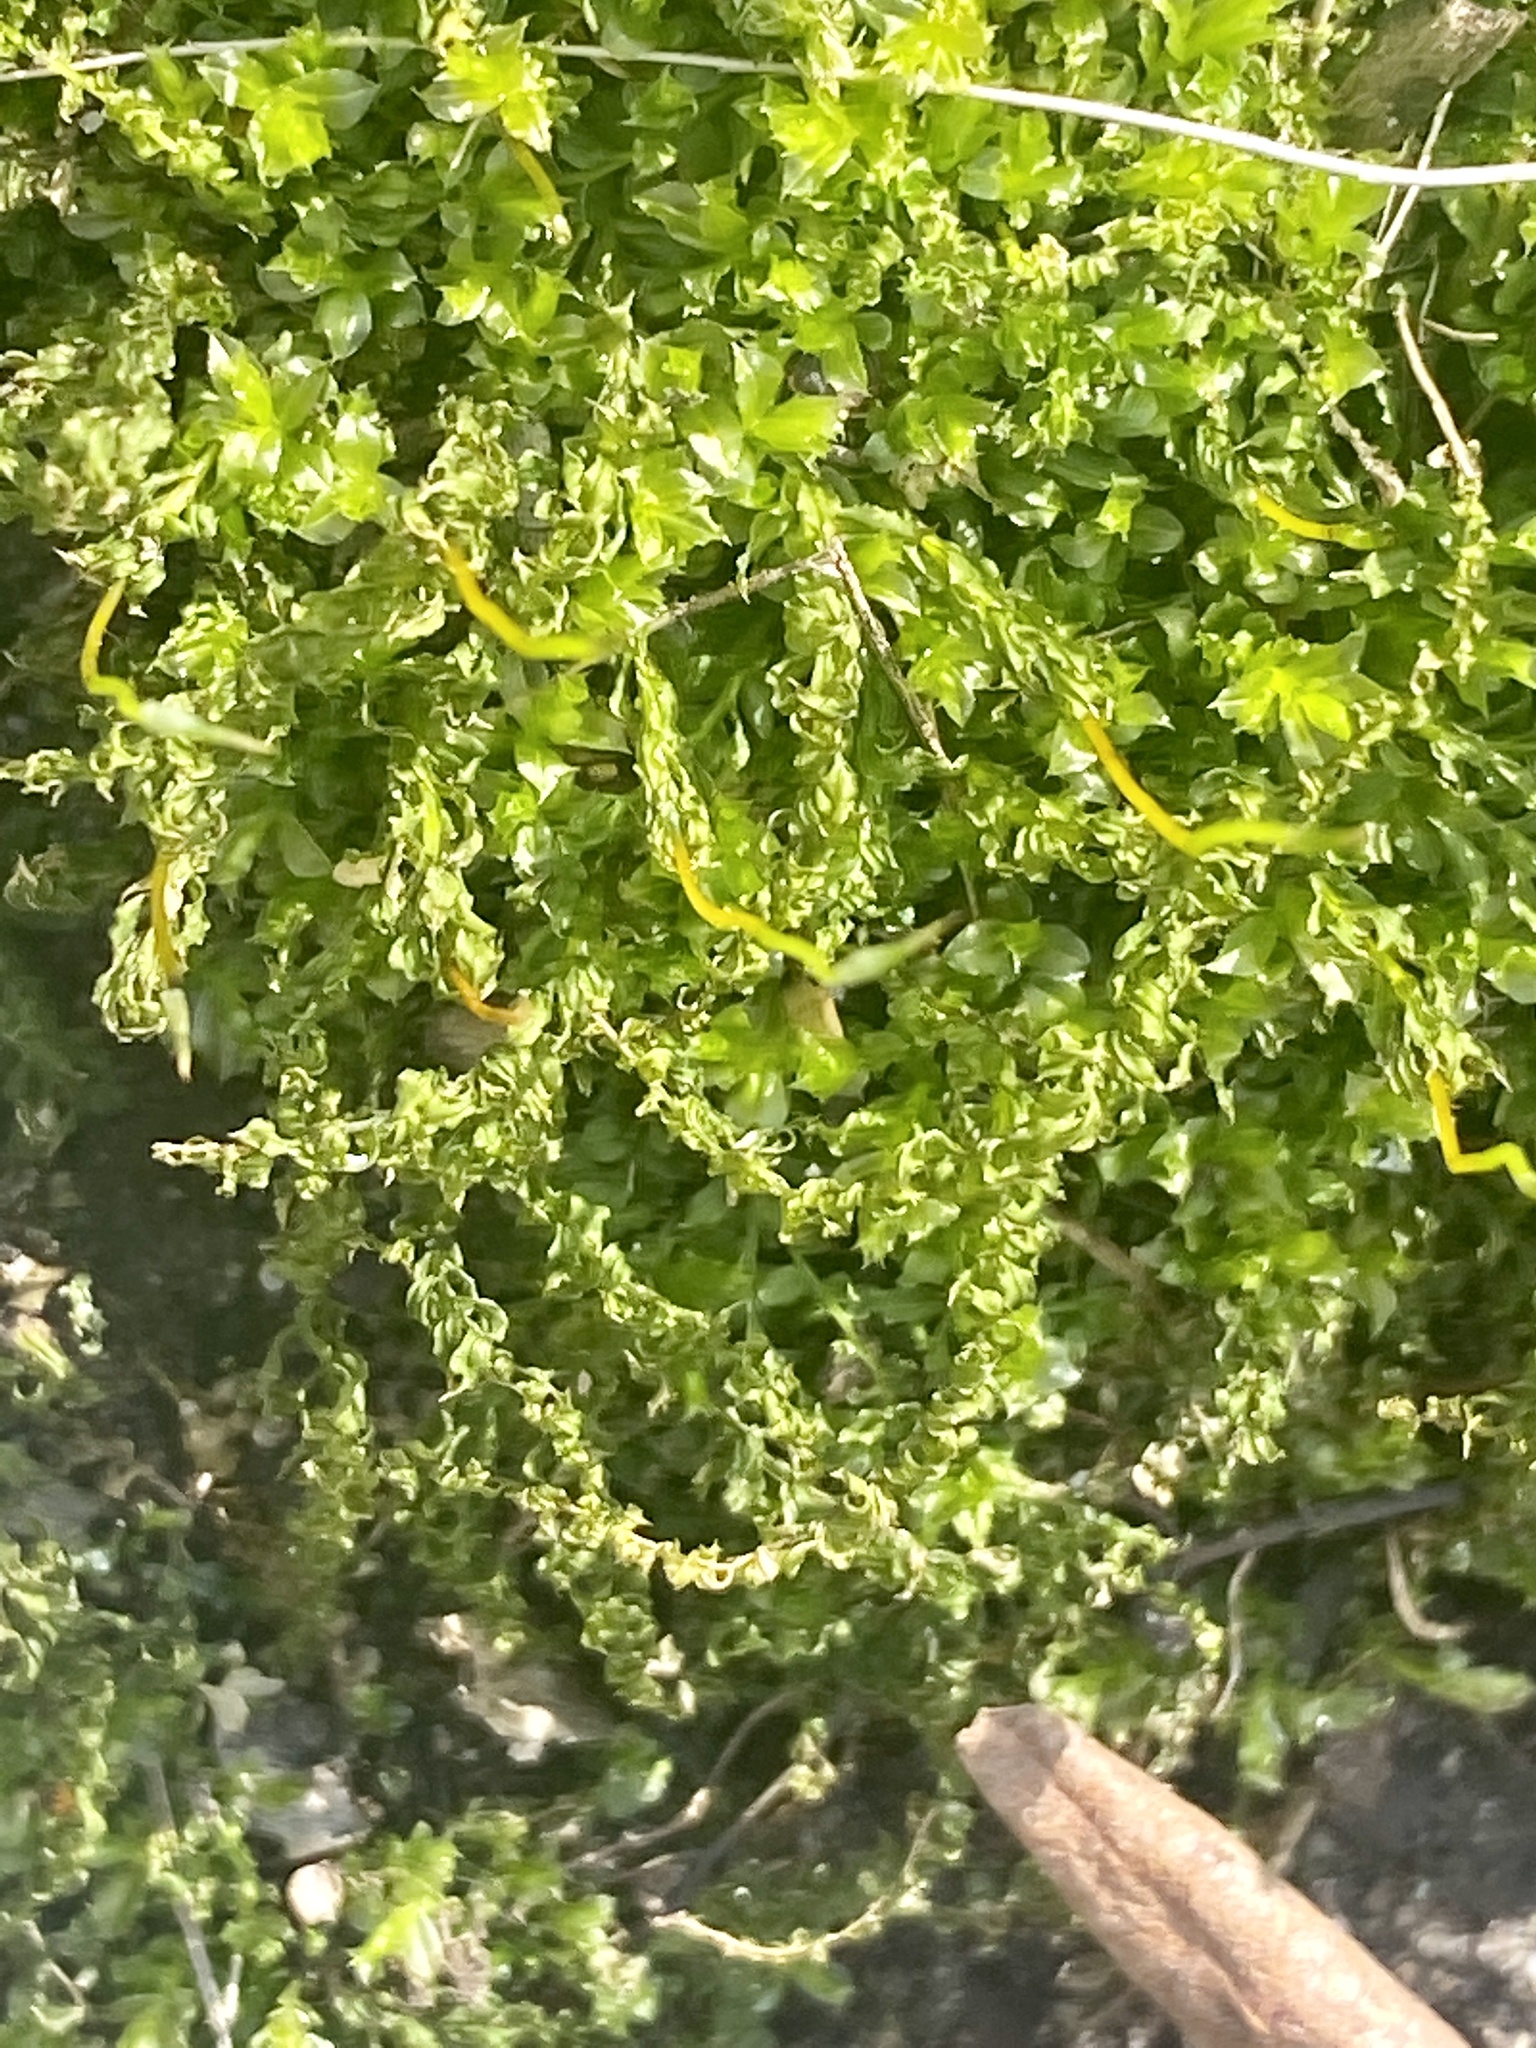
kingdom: Plantae
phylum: Bryophyta
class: Bryopsida
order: Bryales
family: Mniaceae
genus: Plagiomnium
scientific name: Plagiomnium cuspidatum
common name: Woodsy leafy moss
